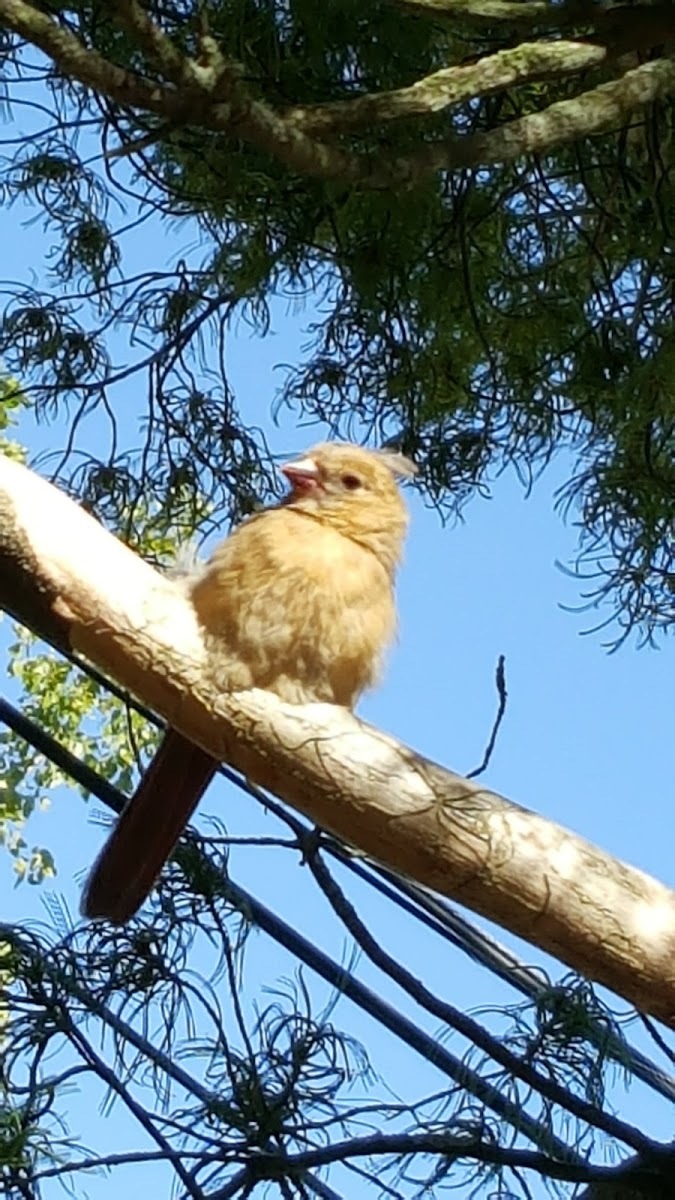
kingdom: Animalia
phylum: Chordata
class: Aves
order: Passeriformes
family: Cardinalidae
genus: Cardinalis
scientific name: Cardinalis cardinalis
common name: Northern cardinal
